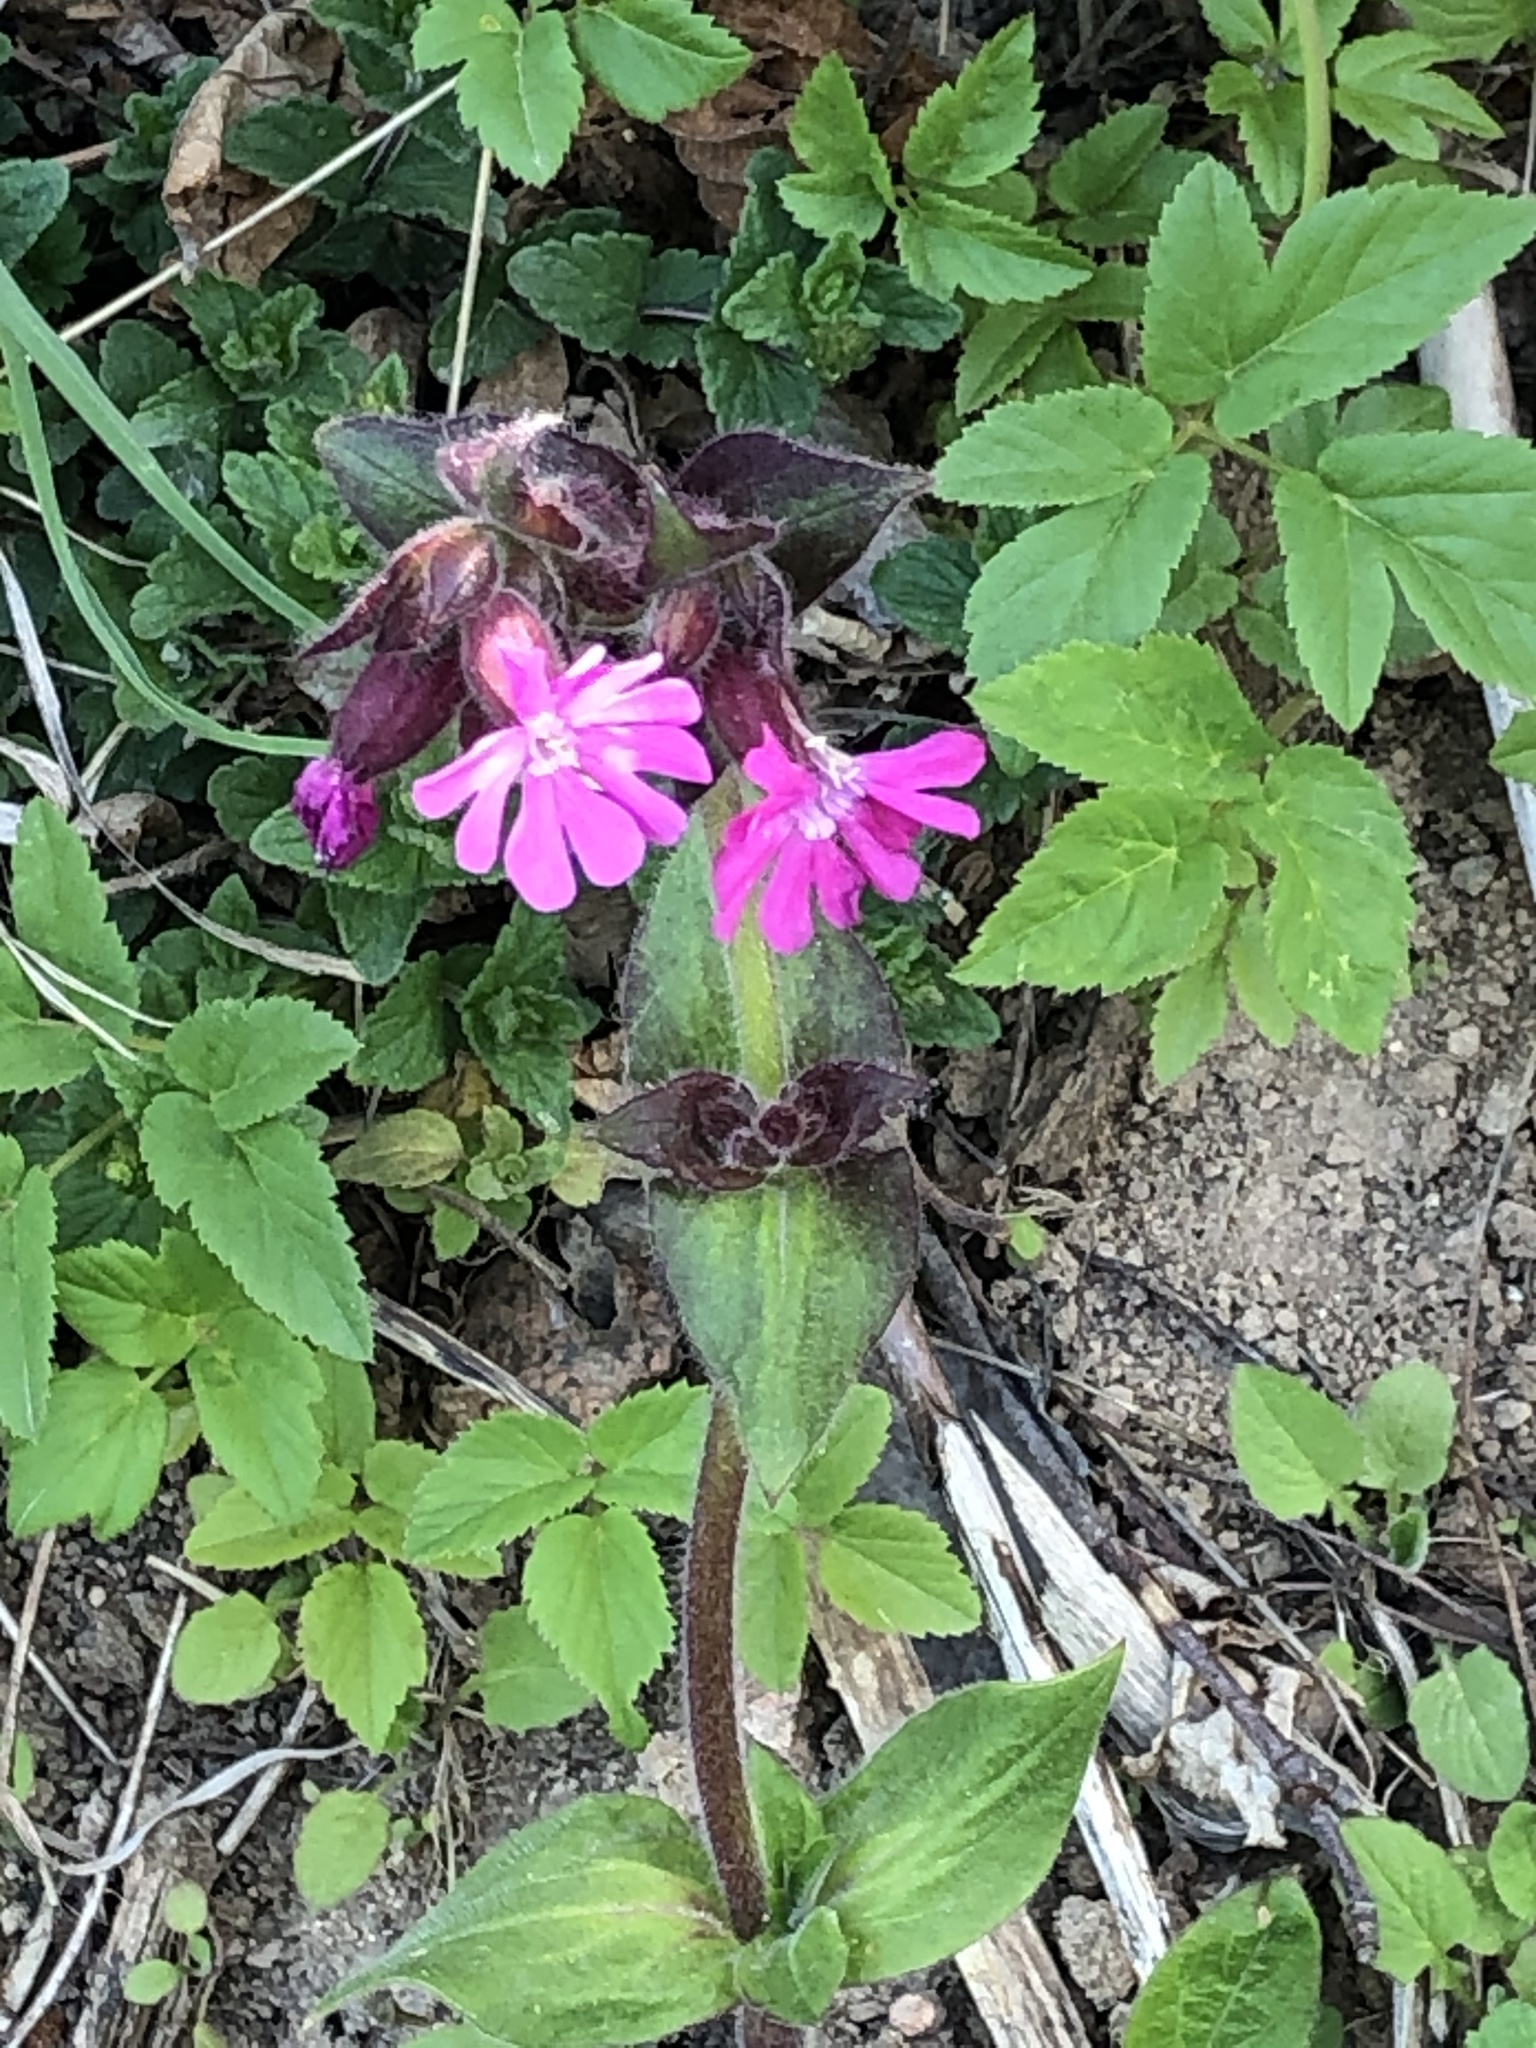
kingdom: Plantae
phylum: Tracheophyta
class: Magnoliopsida
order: Caryophyllales
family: Caryophyllaceae
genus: Silene
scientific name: Silene dioica
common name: Red campion
